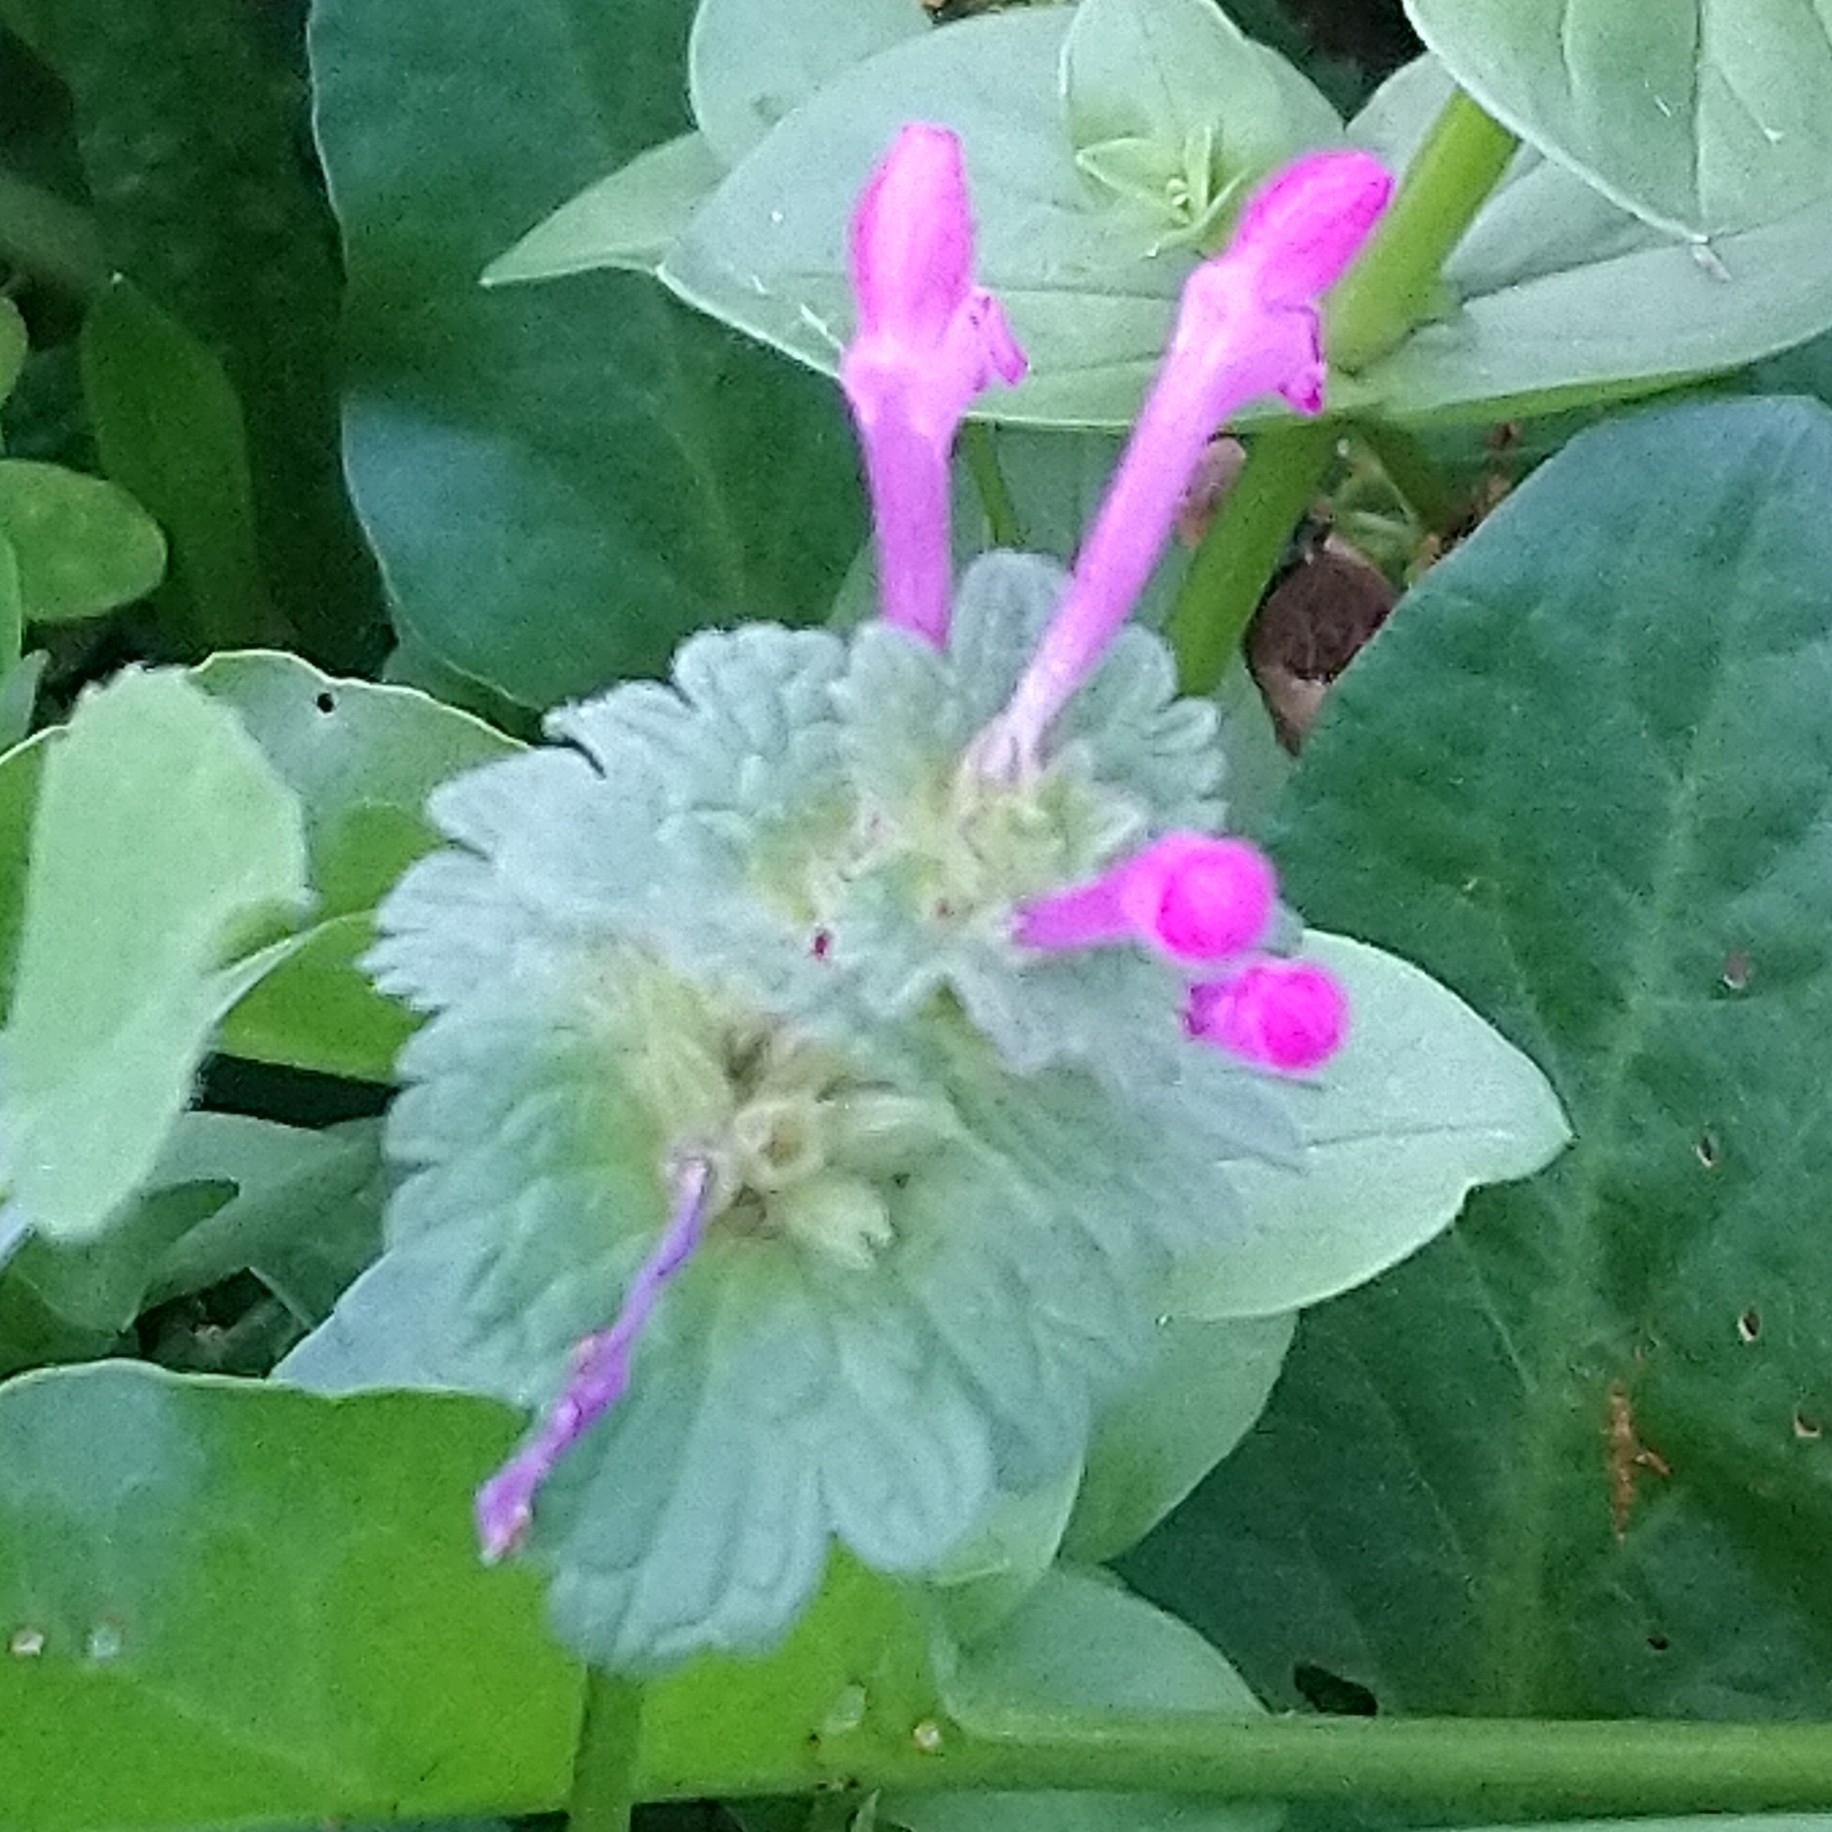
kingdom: Plantae
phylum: Tracheophyta
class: Magnoliopsida
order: Lamiales
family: Lamiaceae
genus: Lamium
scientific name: Lamium amplexicaule
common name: Henbit dead-nettle
